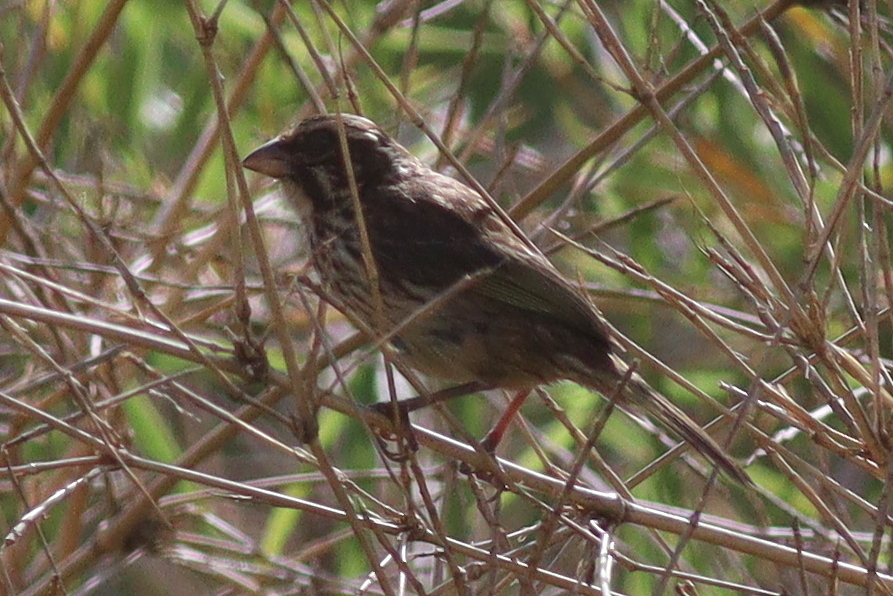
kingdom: Animalia
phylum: Chordata
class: Aves
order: Passeriformes
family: Fringillidae
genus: Crithagra
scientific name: Crithagra striolata
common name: Streaky seedeater
